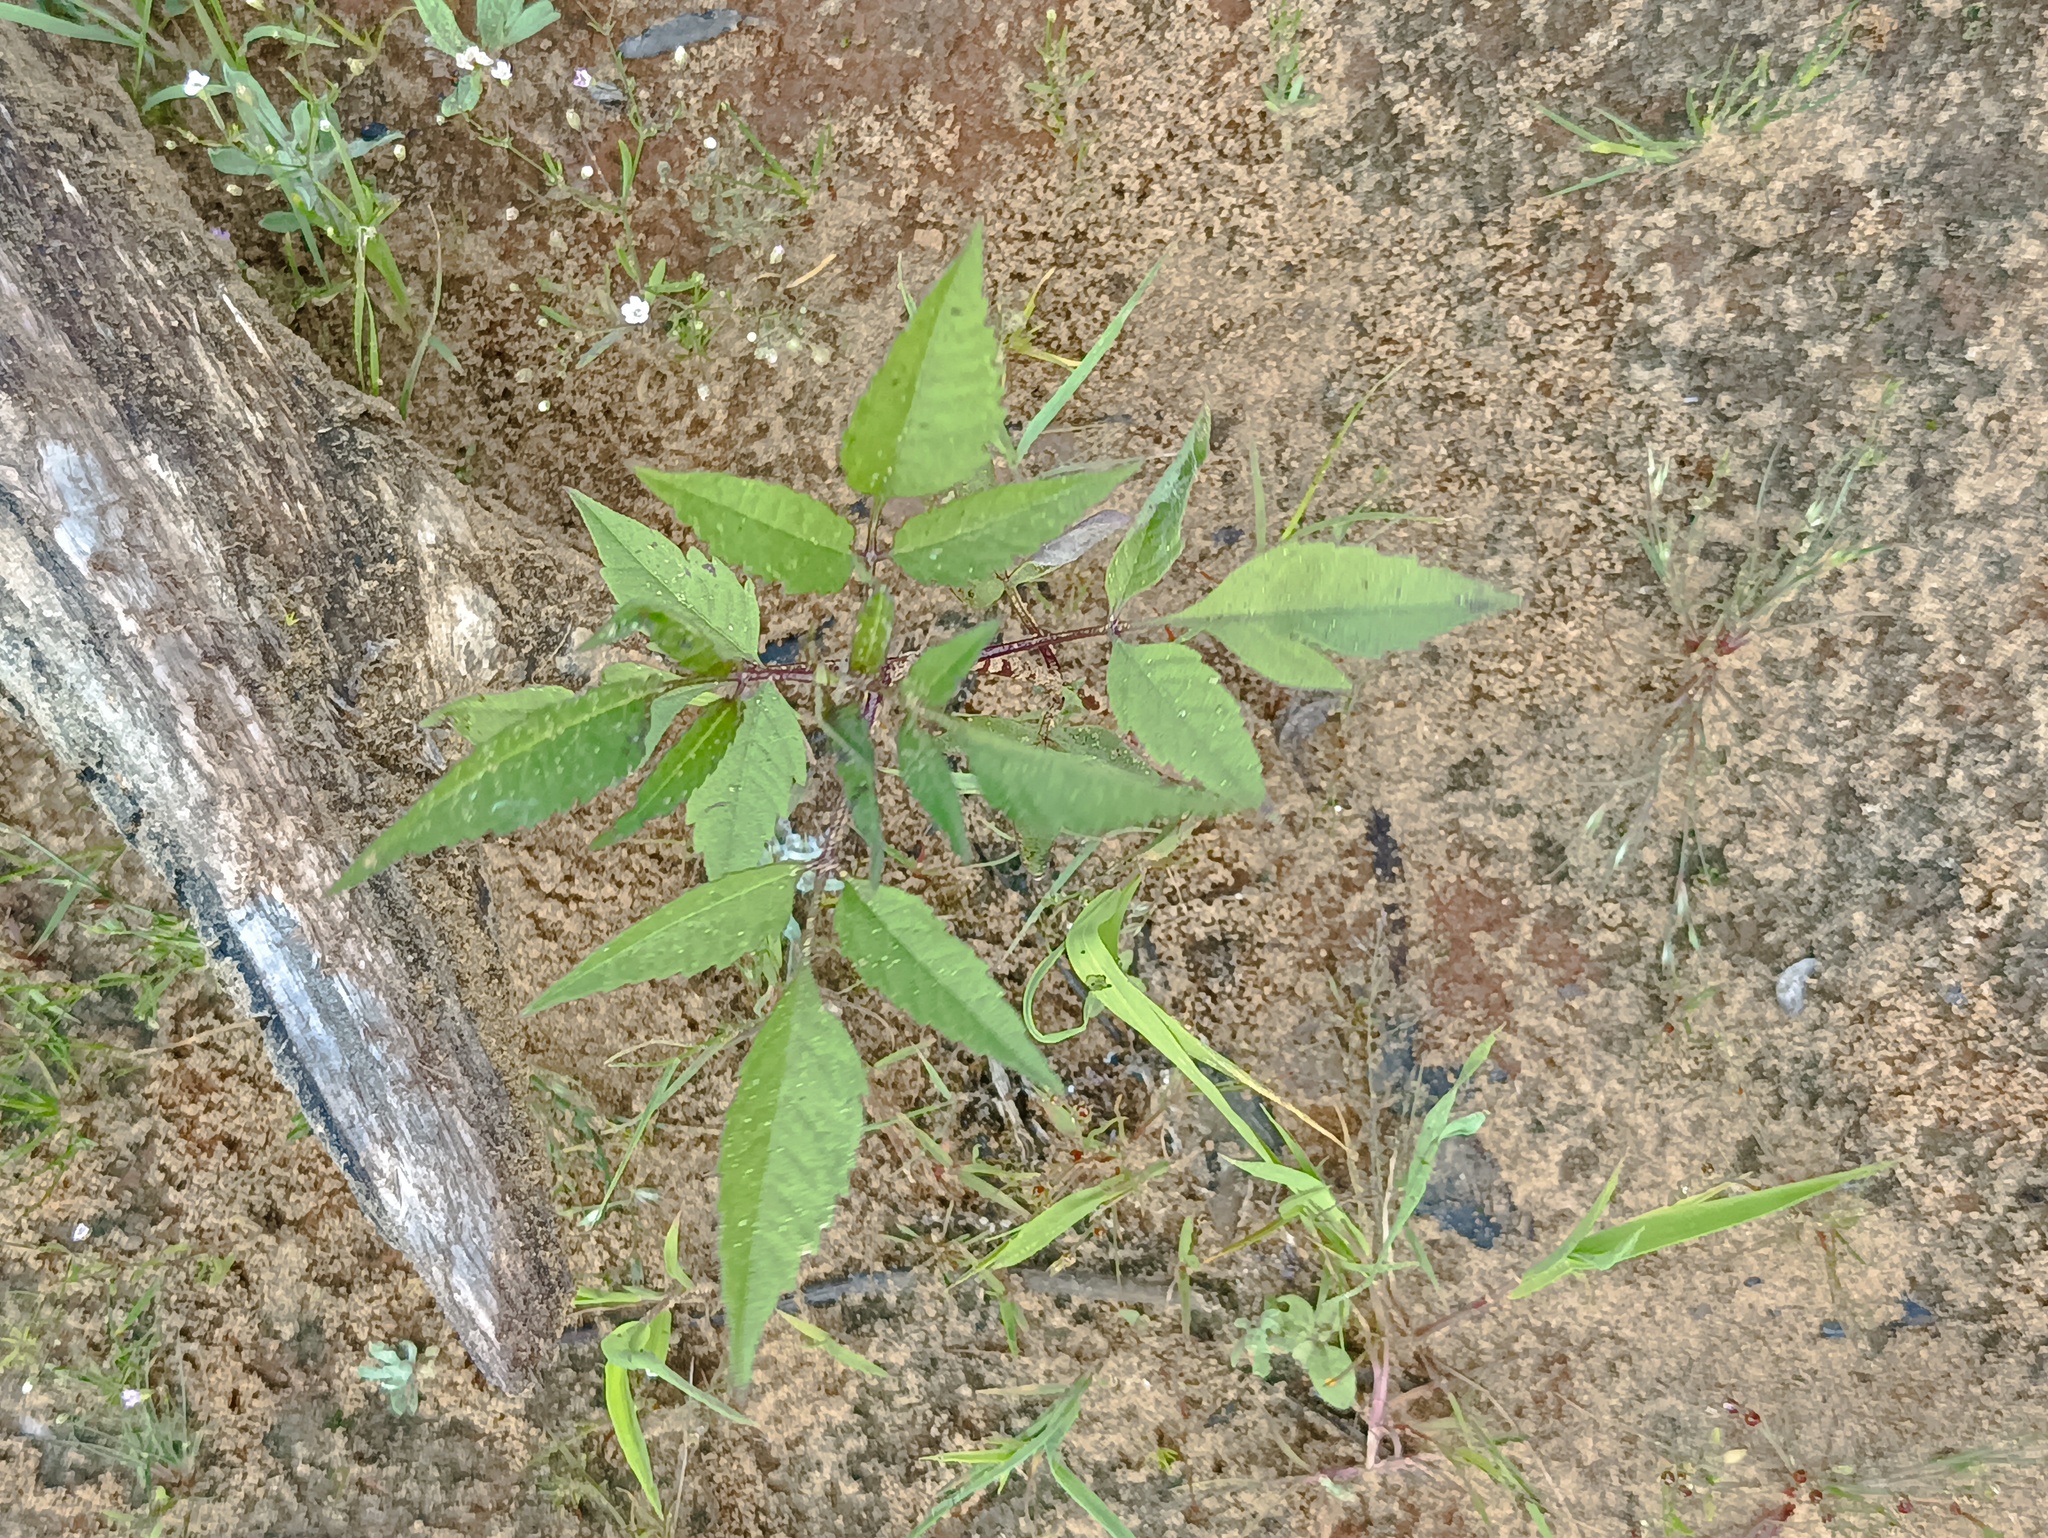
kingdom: Plantae
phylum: Tracheophyta
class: Magnoliopsida
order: Asterales
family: Asteraceae
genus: Bidens
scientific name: Bidens frondosa
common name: Beggarticks
